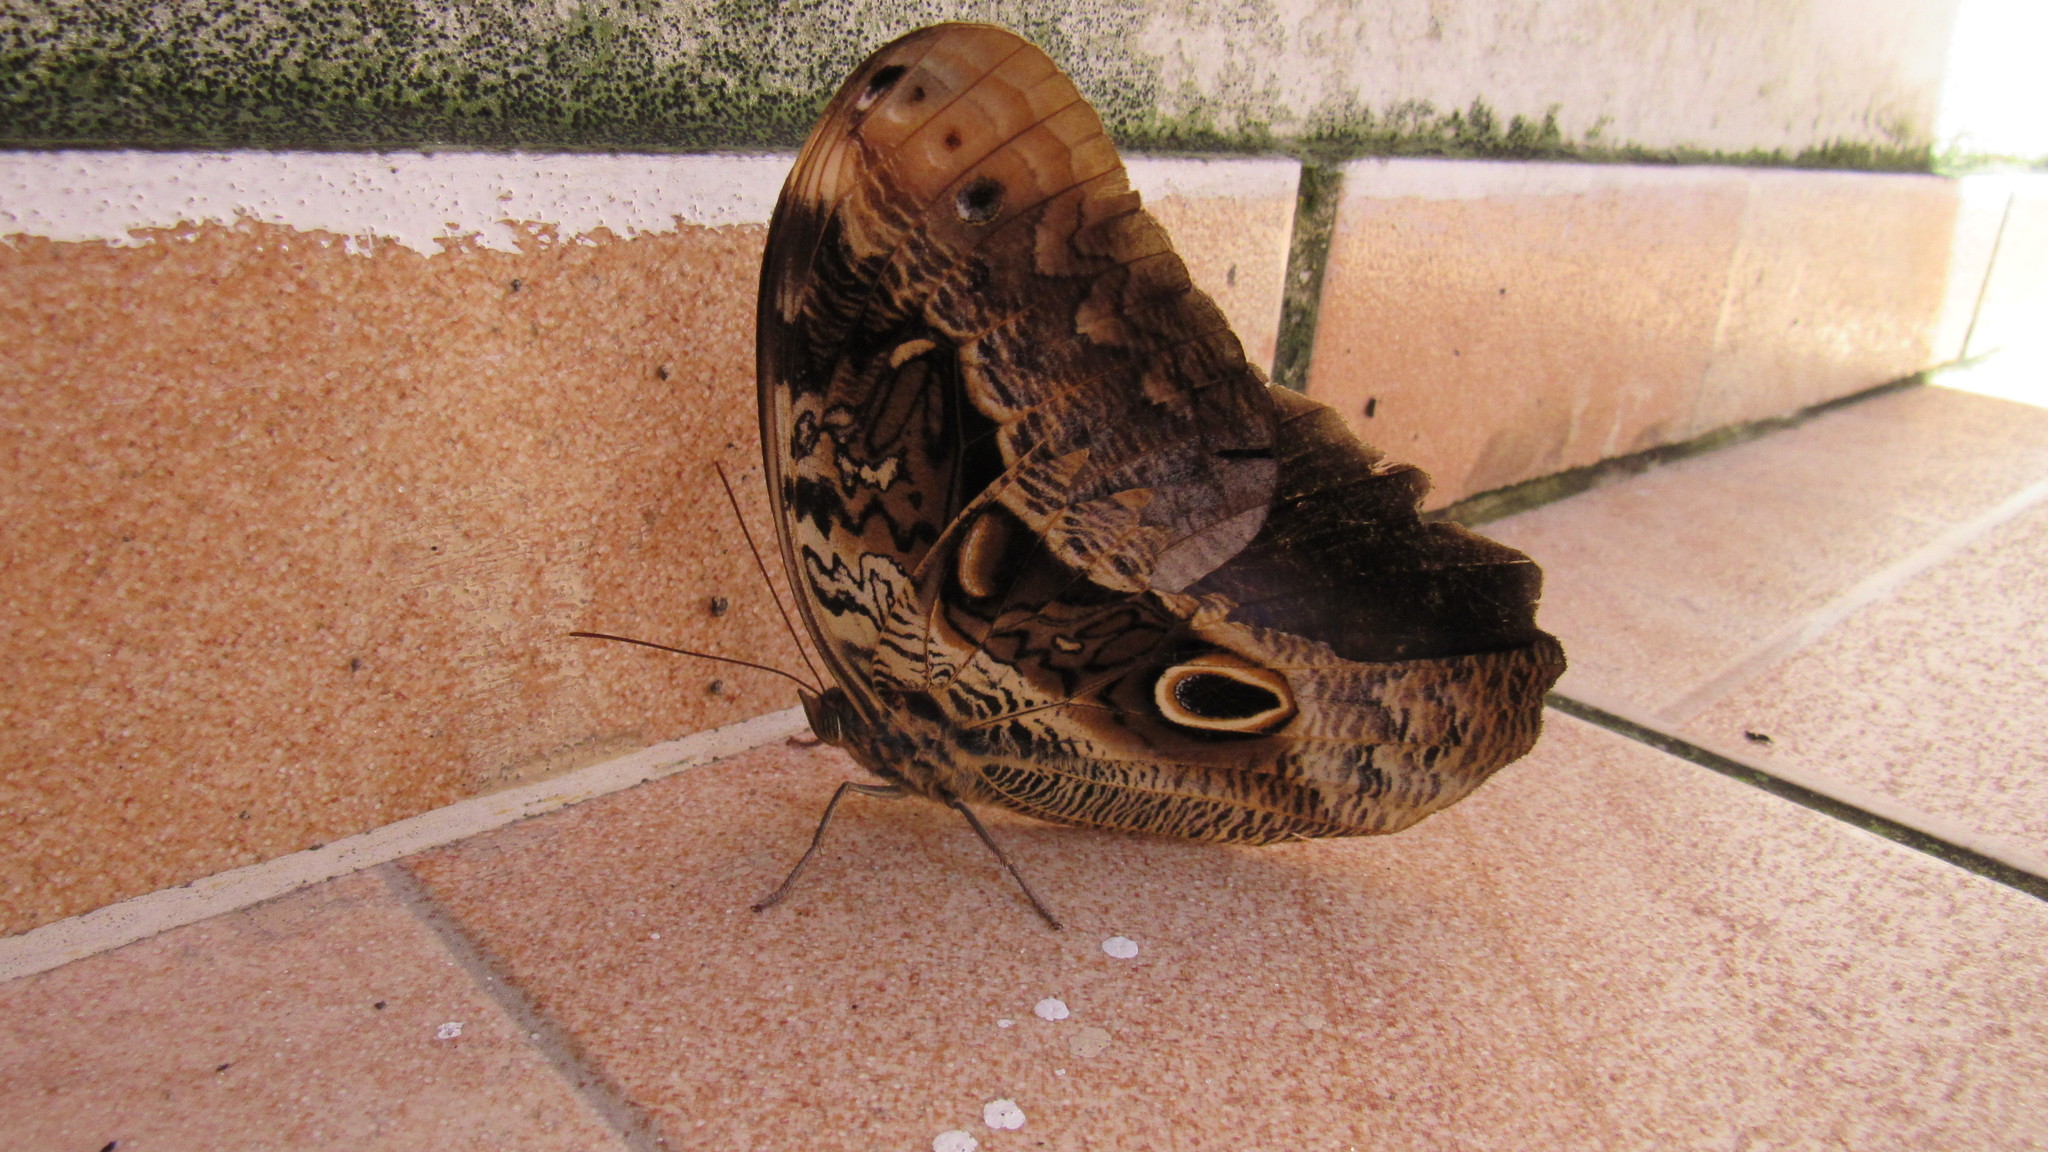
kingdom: Animalia
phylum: Arthropoda
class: Insecta
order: Lepidoptera
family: Nymphalidae
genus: Caligo
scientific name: Caligo beltrao
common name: Purple owl-butterfly
